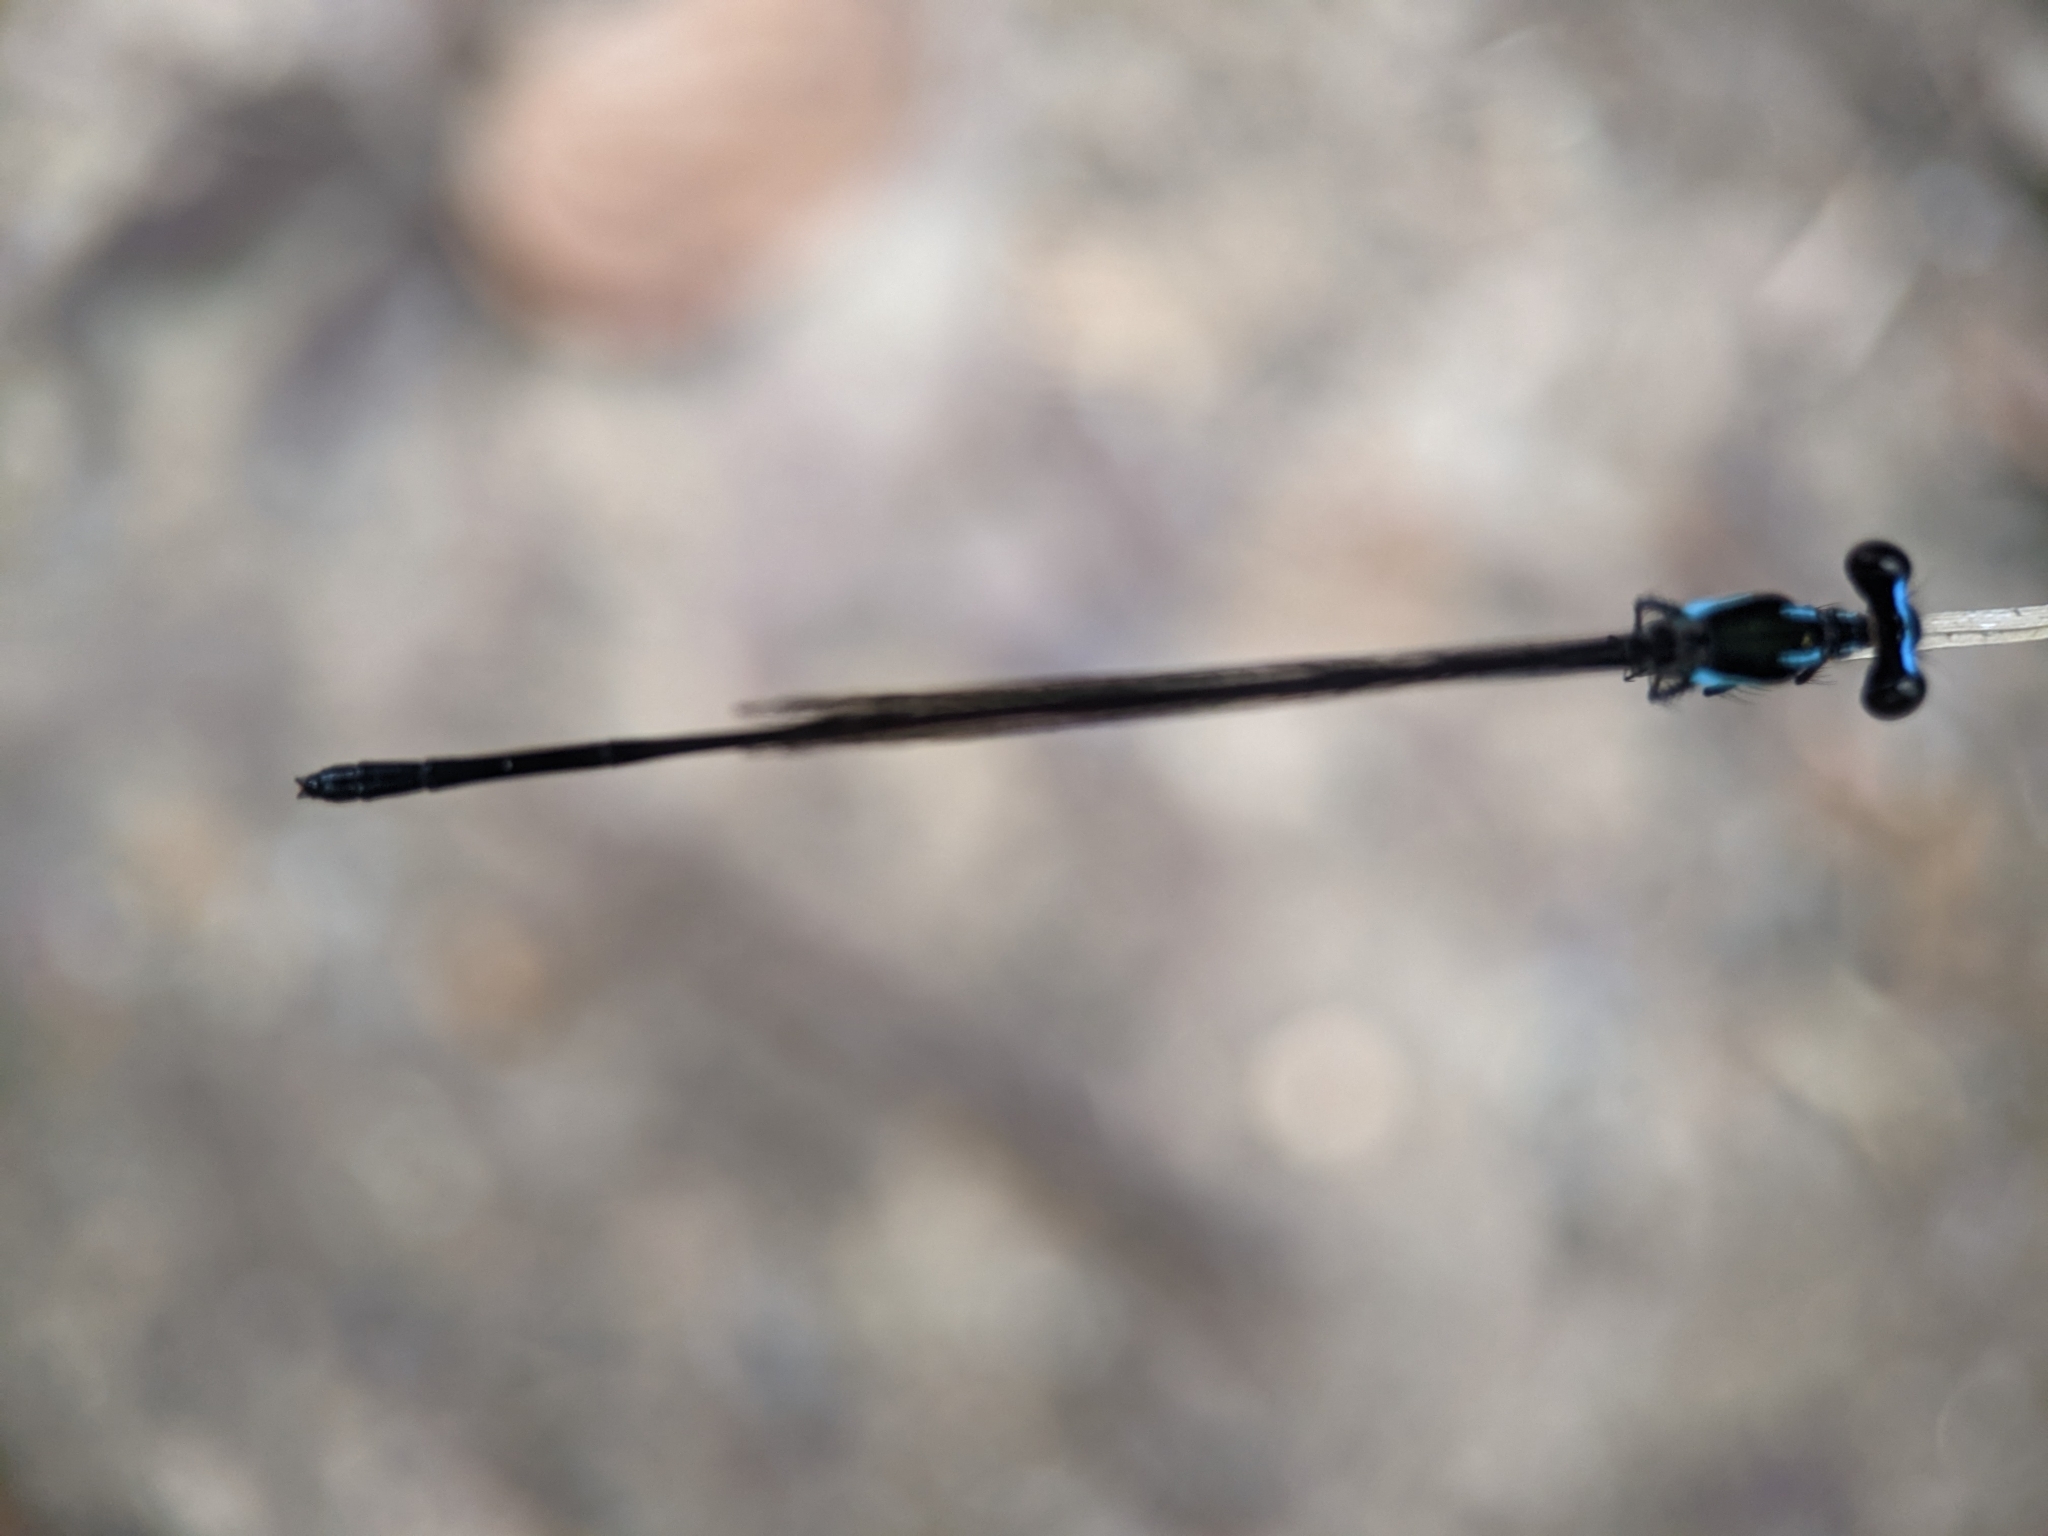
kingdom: Animalia
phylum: Arthropoda
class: Insecta
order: Odonata
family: Platycnemididae
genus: Prodasineura
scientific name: Prodasineura collaris
